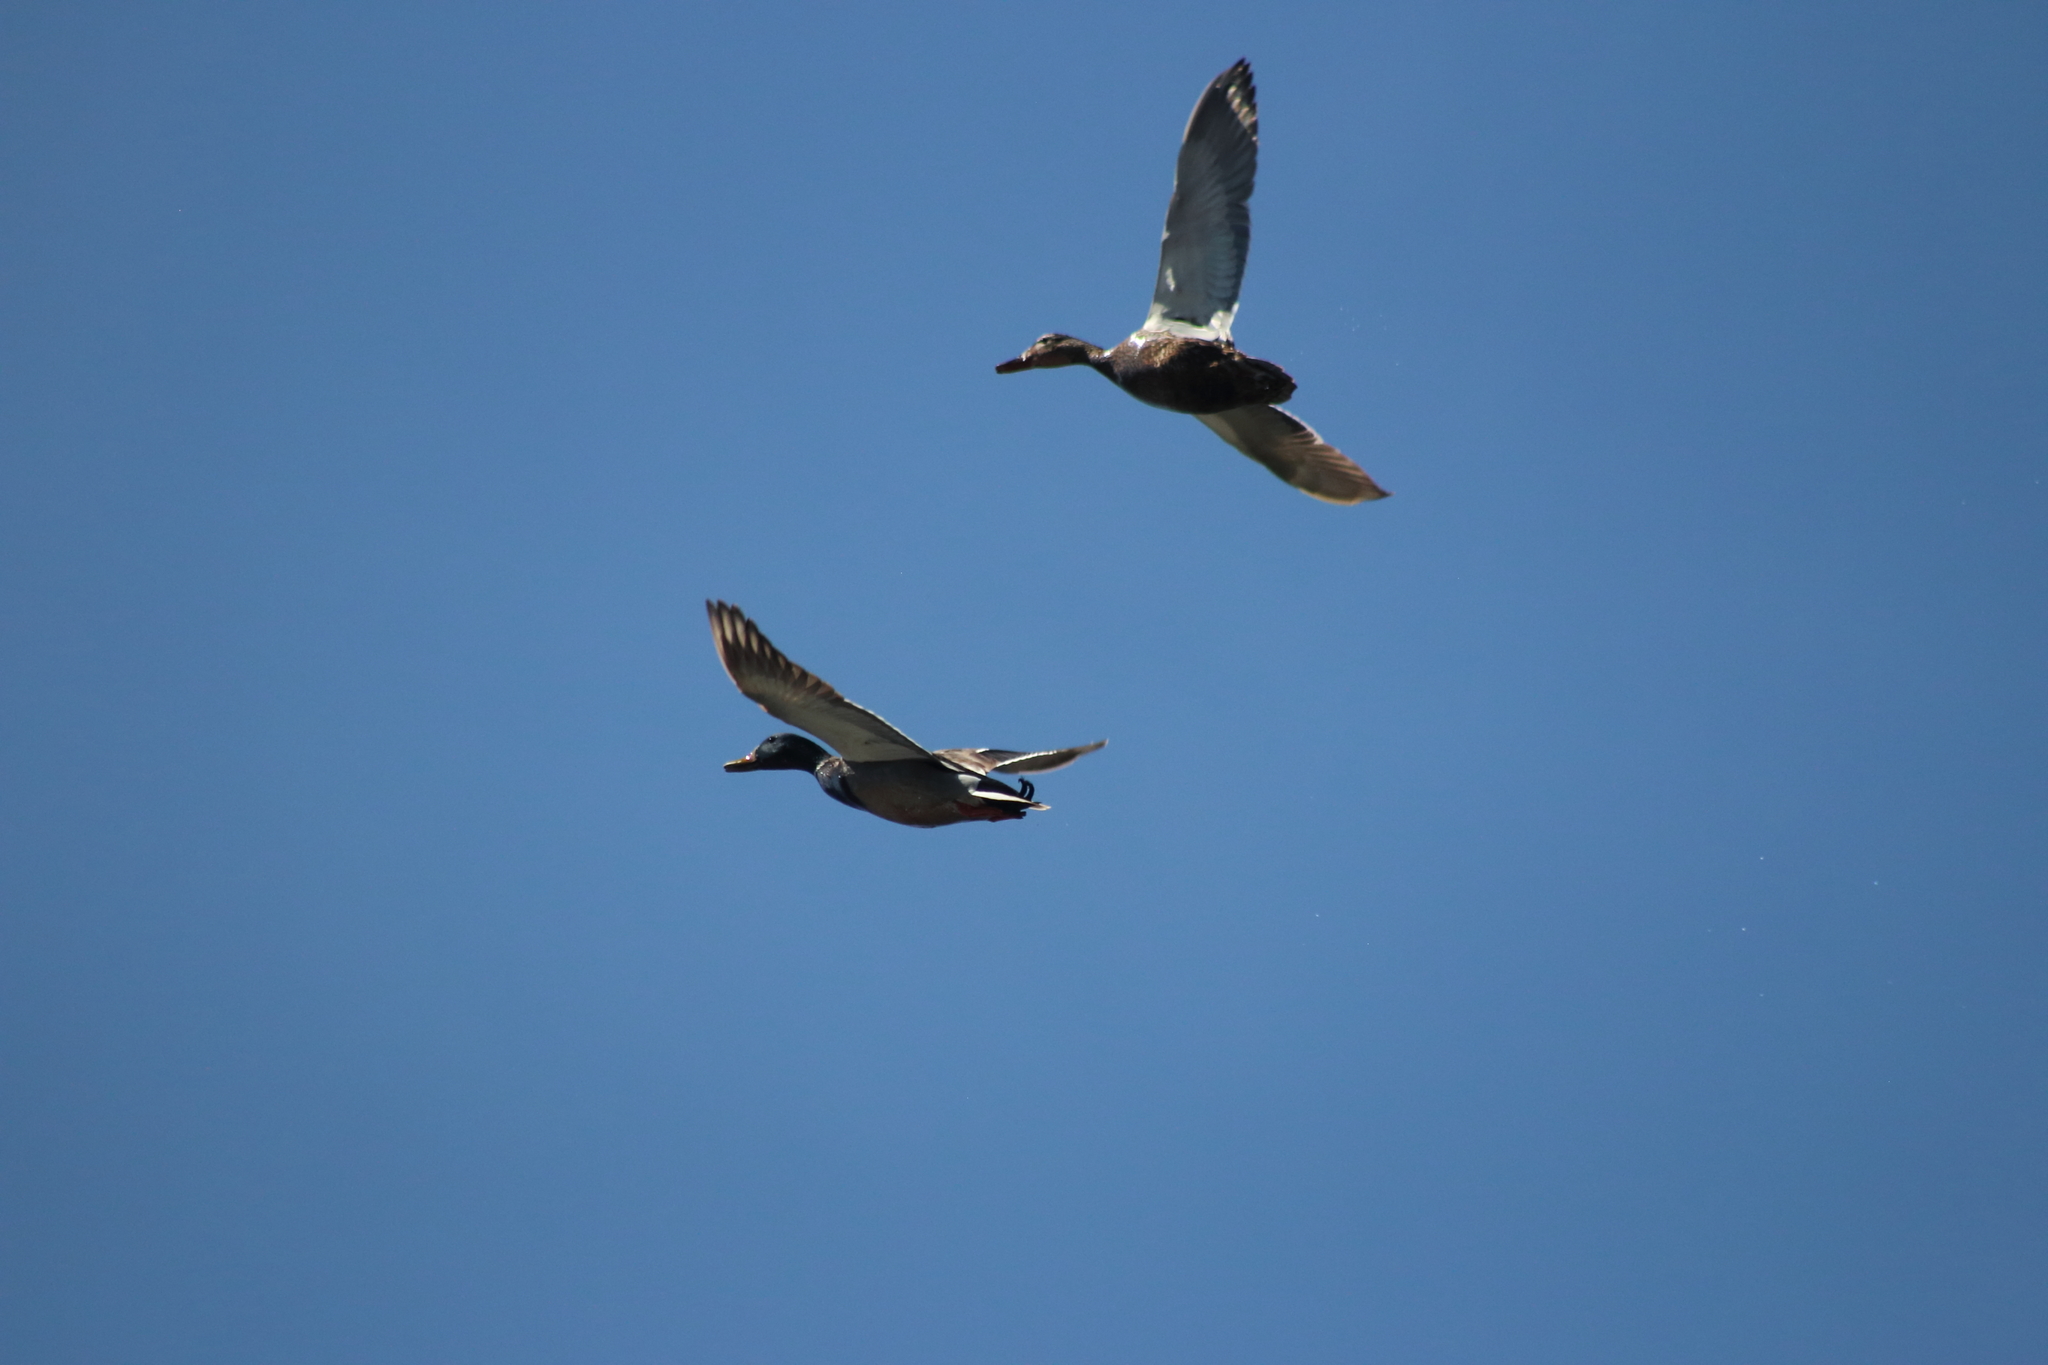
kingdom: Animalia
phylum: Chordata
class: Aves
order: Anseriformes
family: Anatidae
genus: Anas
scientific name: Anas platyrhynchos
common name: Mallard
